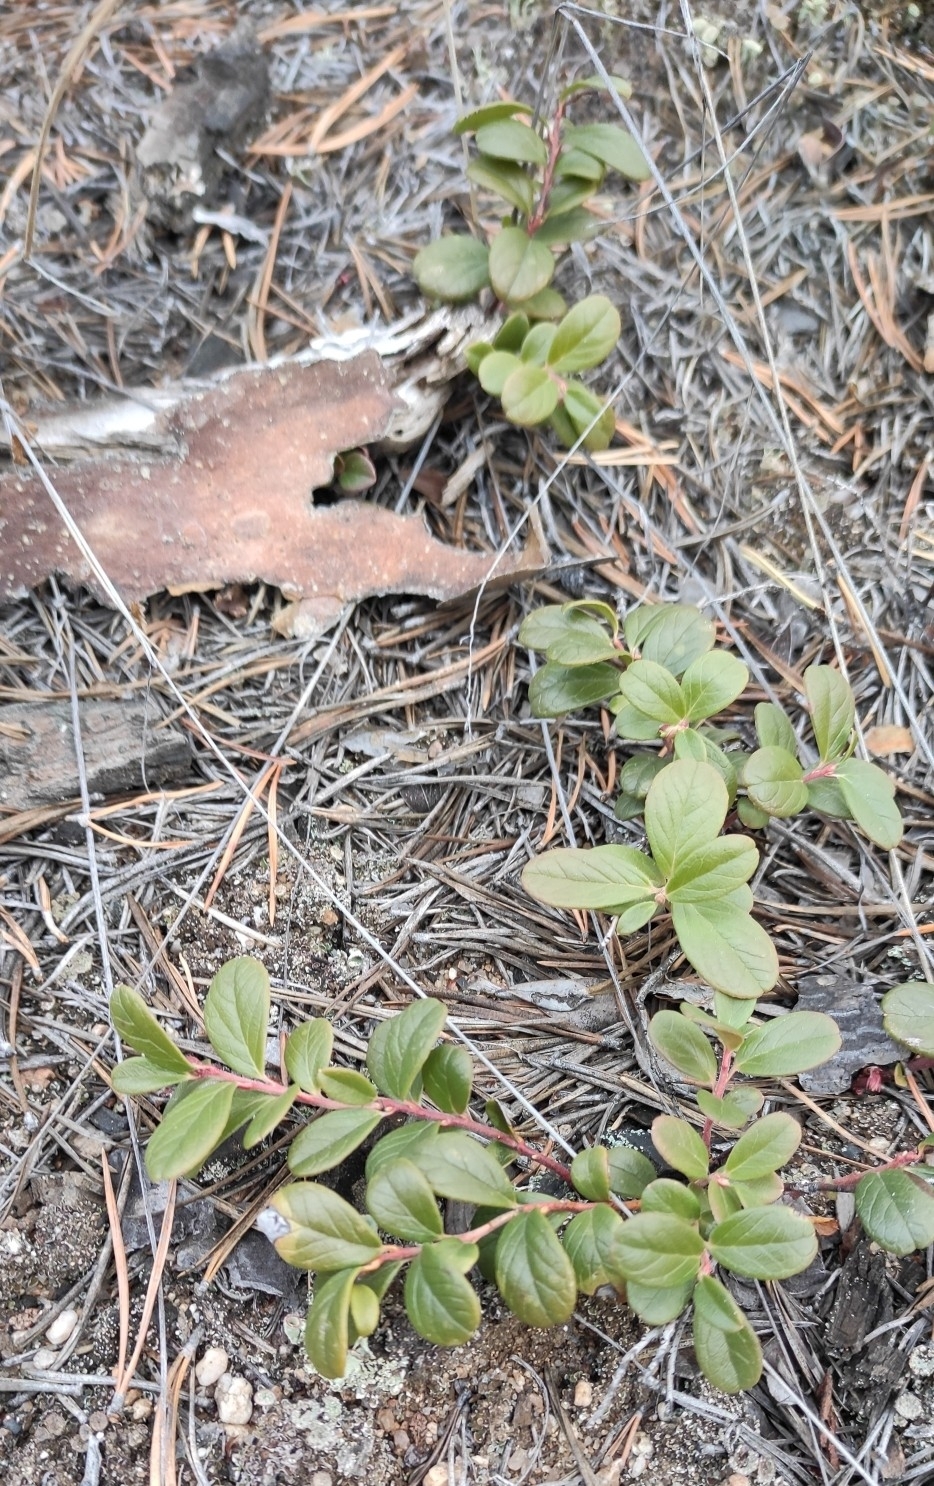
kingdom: Plantae
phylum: Tracheophyta
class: Magnoliopsida
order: Ericales
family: Ericaceae
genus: Vaccinium
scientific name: Vaccinium vitis-idaea
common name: Cowberry
